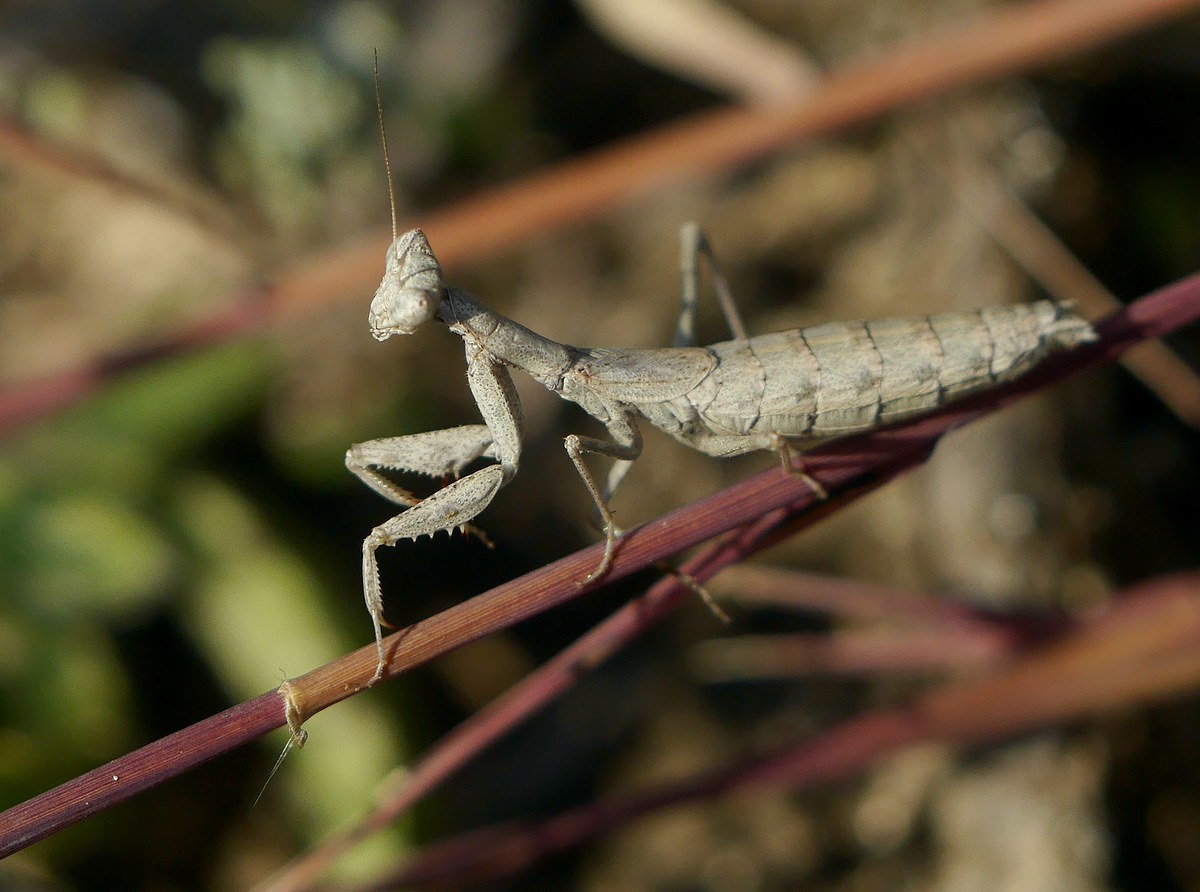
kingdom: Animalia
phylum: Arthropoda
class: Insecta
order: Mantodea
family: Amelidae
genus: Ameles
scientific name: Ameles heldreichi
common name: Heldreich's dwarf mantis
